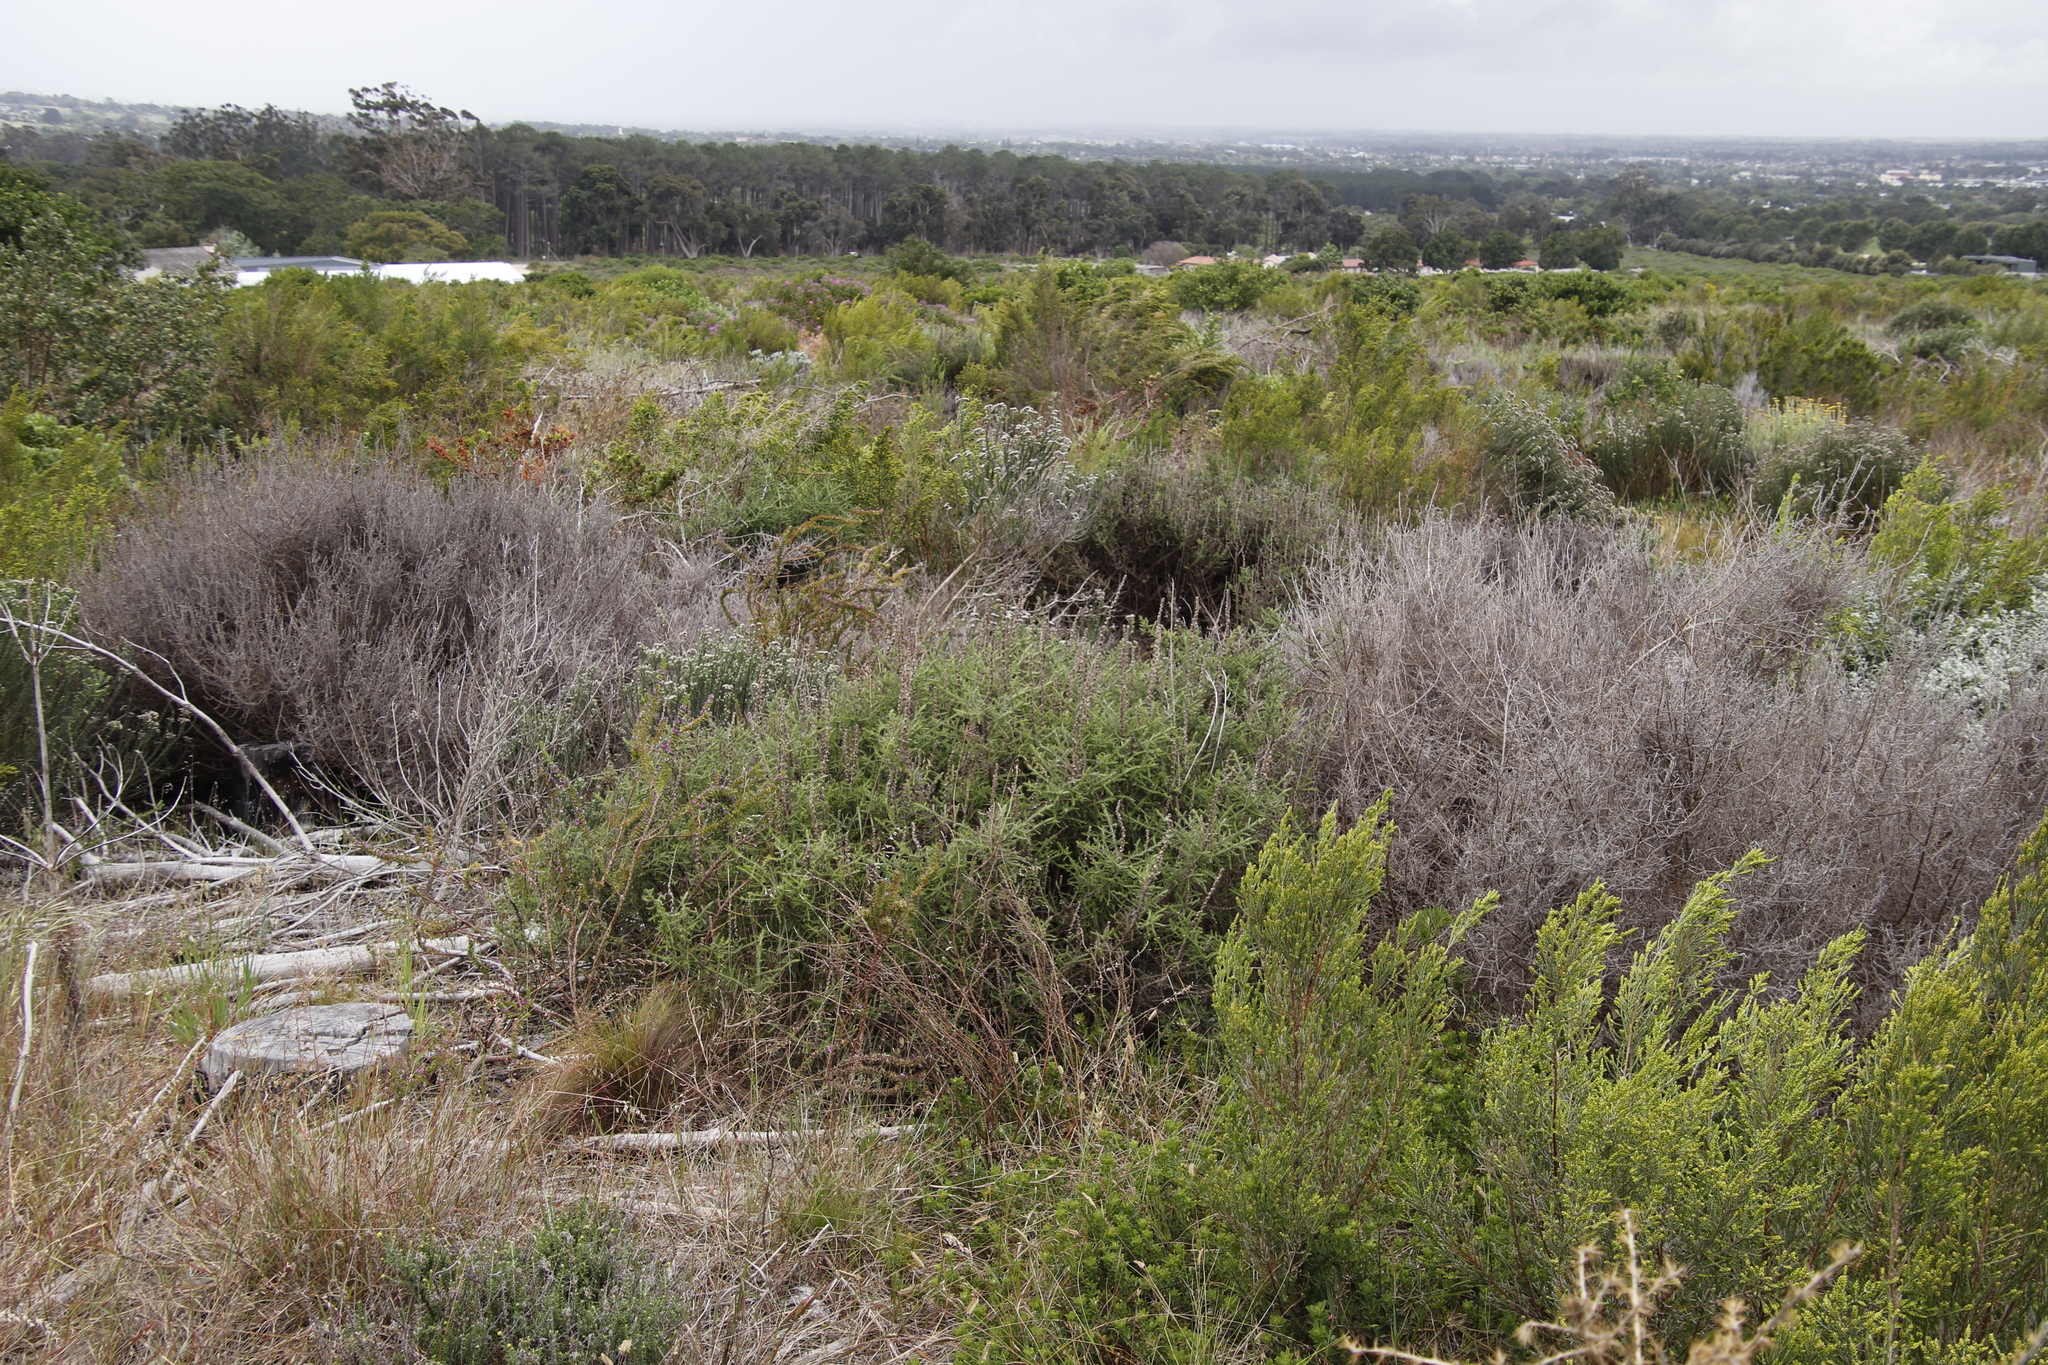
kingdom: Plantae
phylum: Tracheophyta
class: Magnoliopsida
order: Asterales
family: Asteraceae
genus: Seriphium
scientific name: Seriphium cinereum
